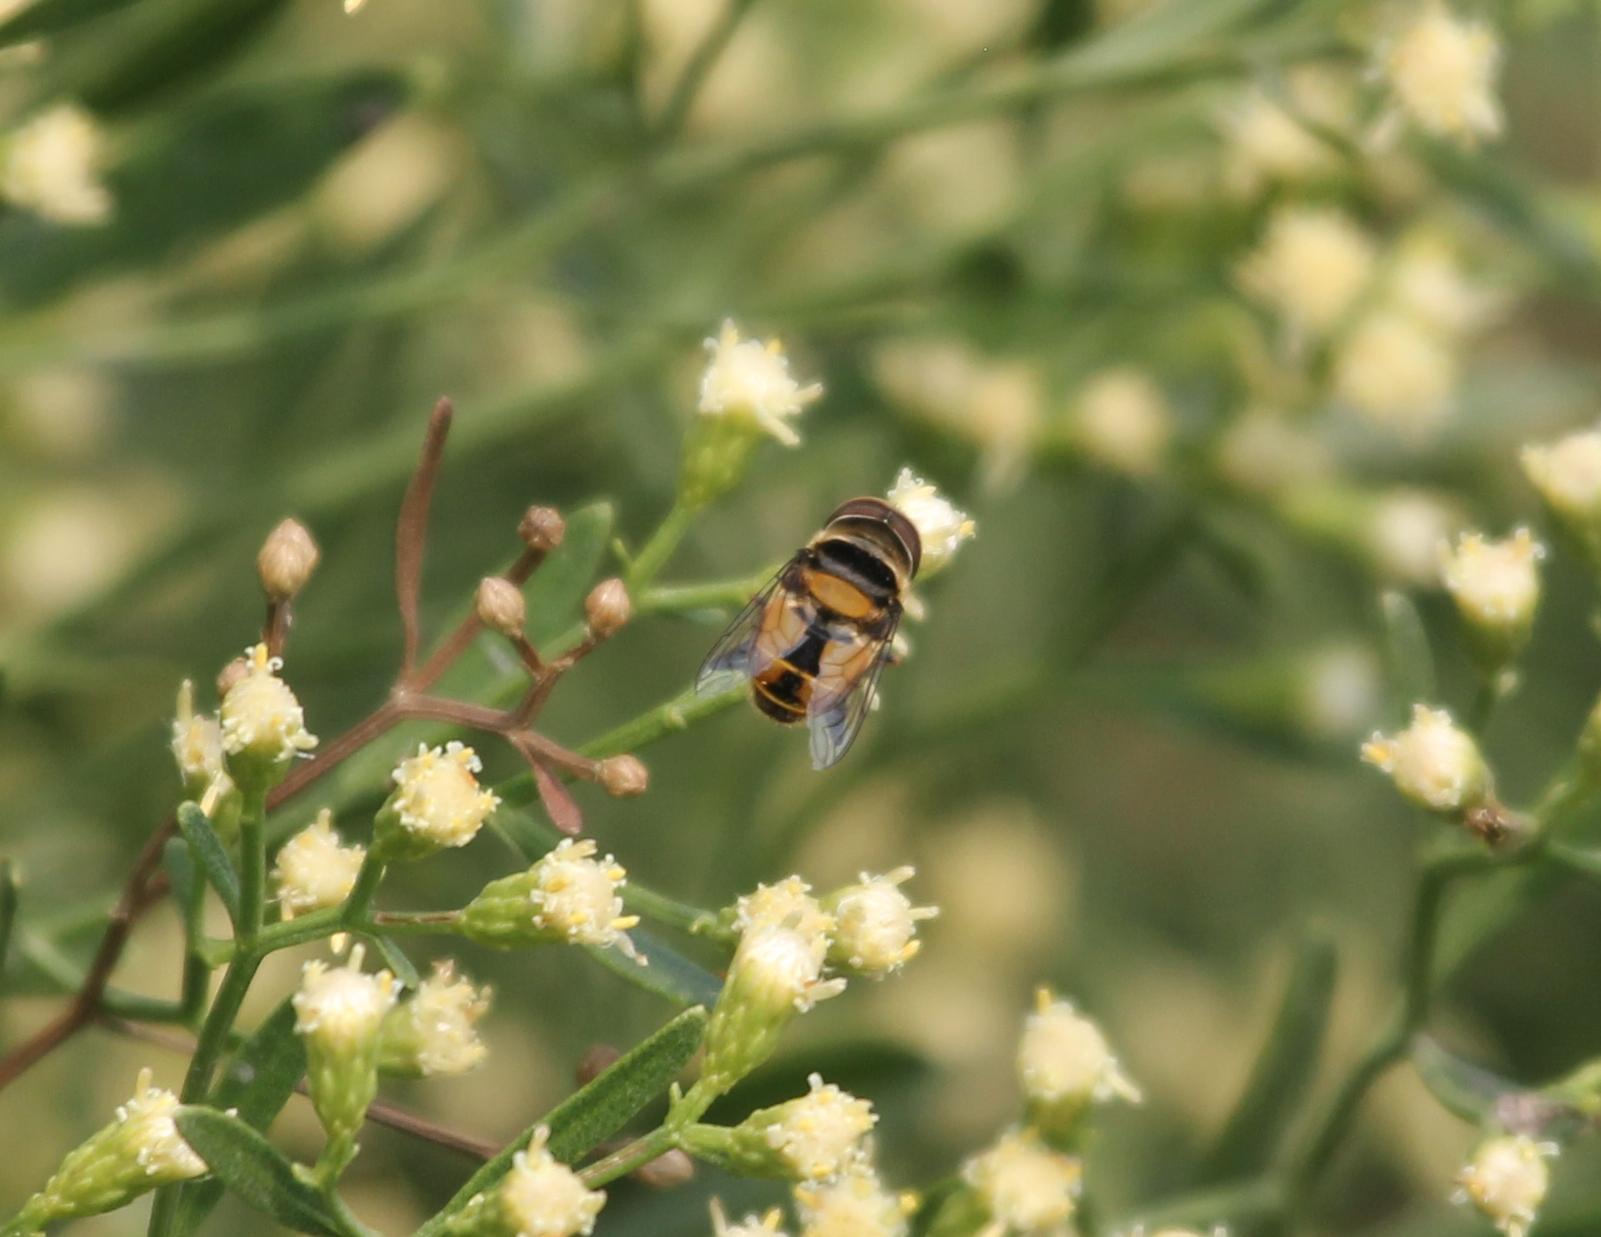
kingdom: Animalia
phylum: Arthropoda
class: Insecta
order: Diptera
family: Syrphidae
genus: Palpada
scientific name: Palpada agrorum
